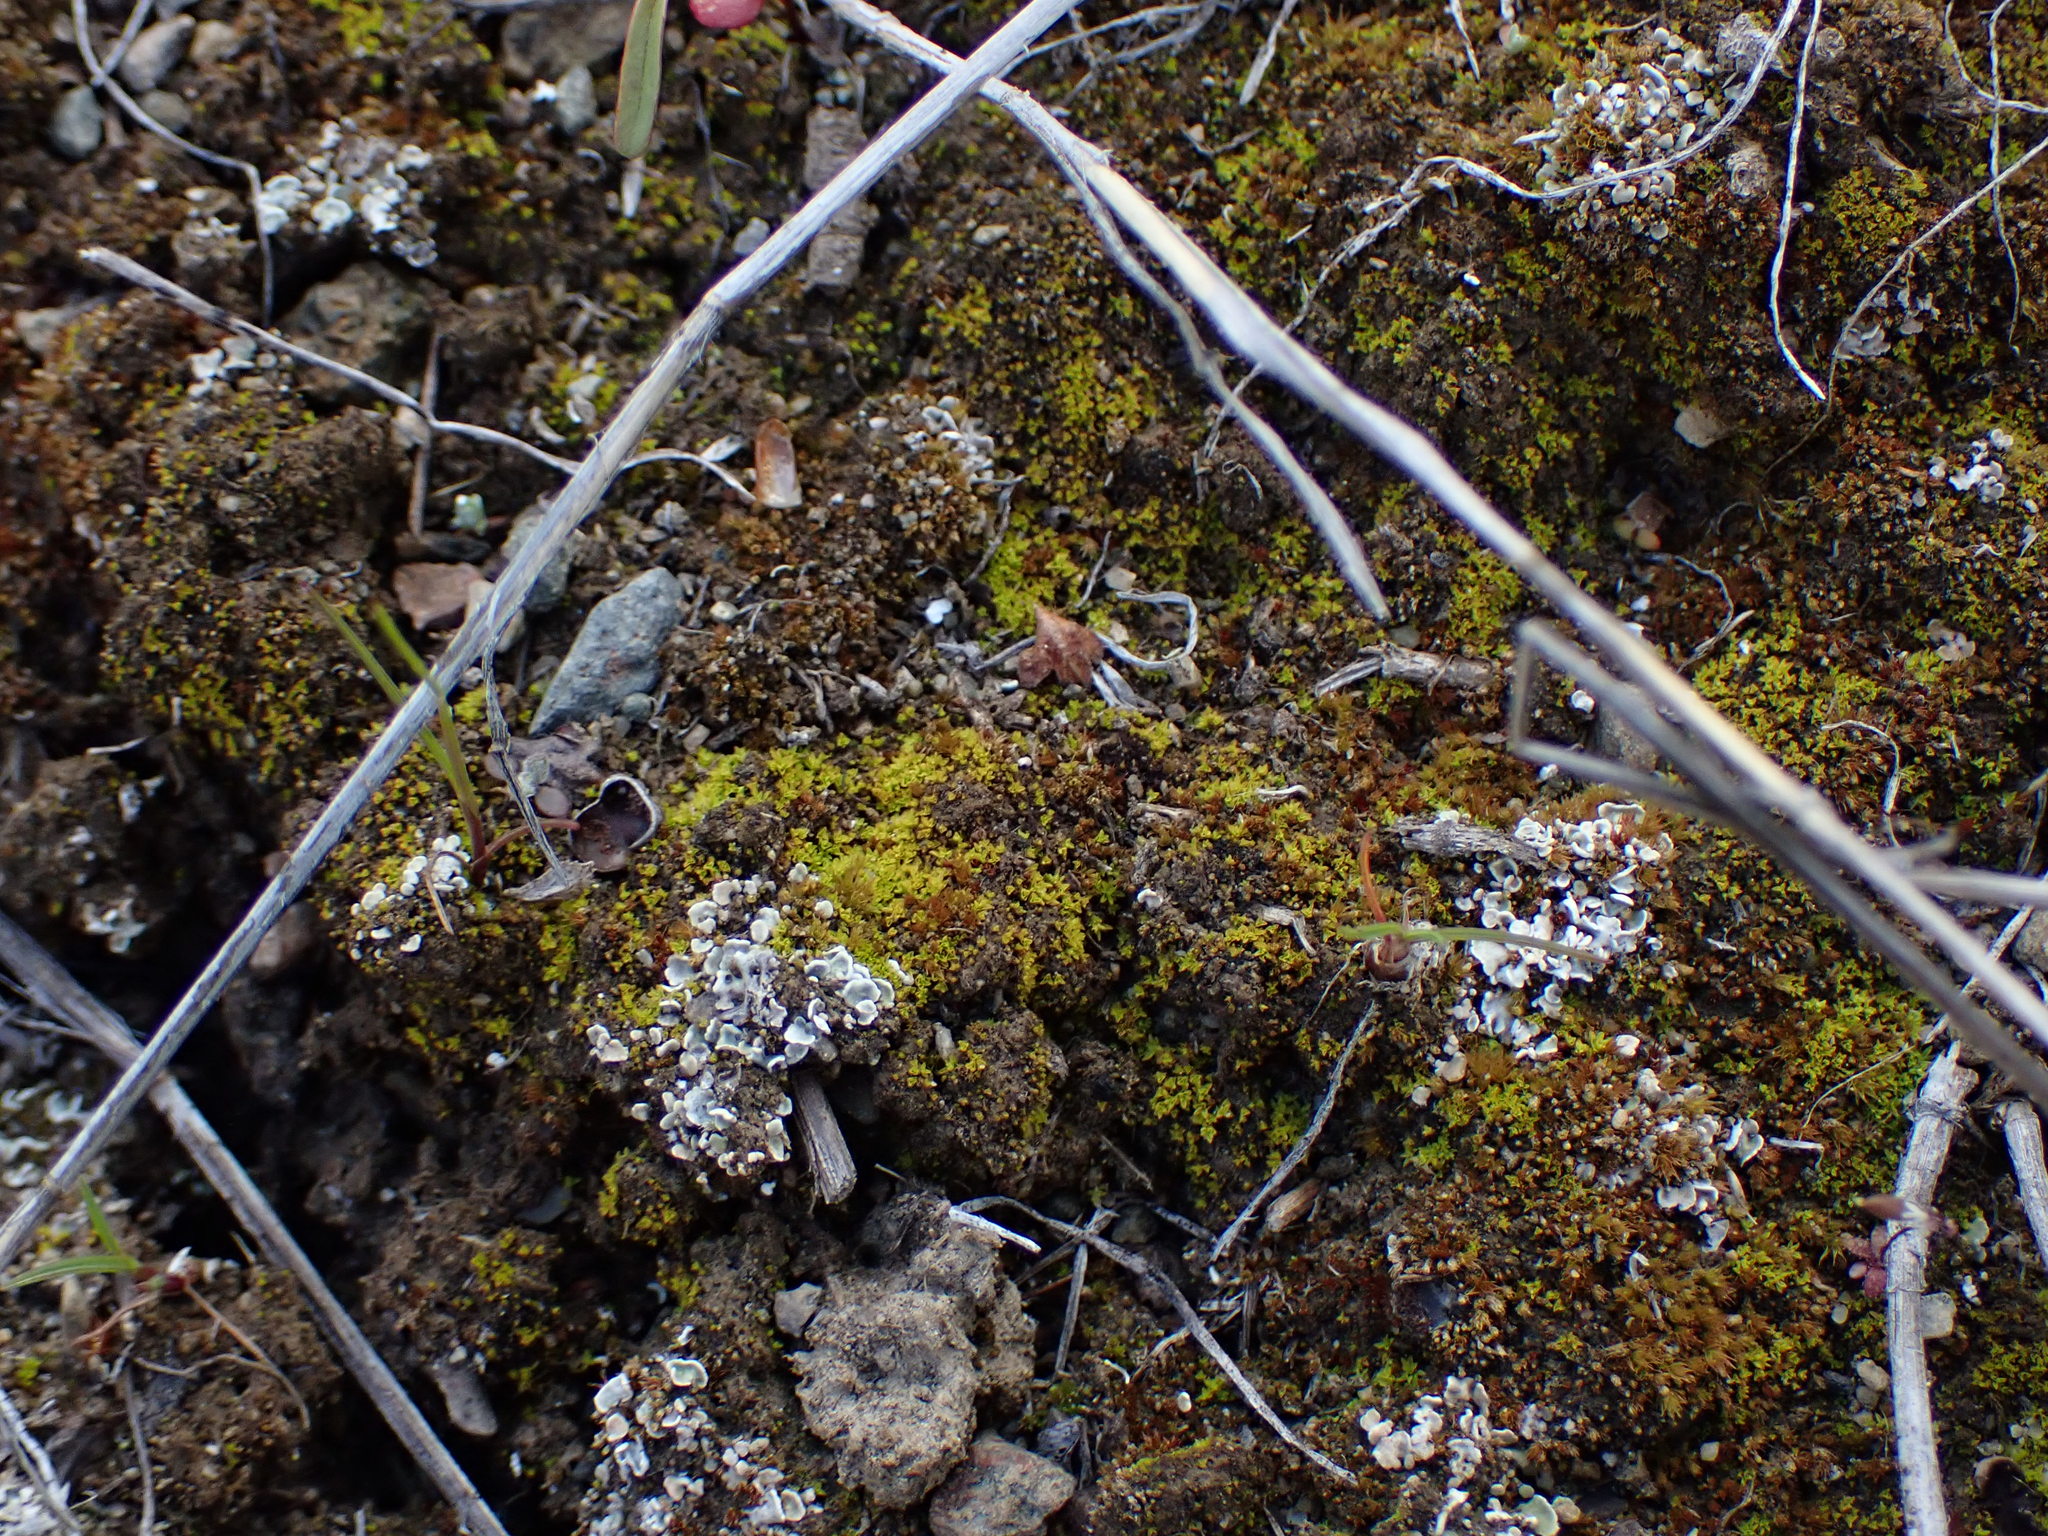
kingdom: Plantae
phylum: Bryophyta
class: Bryopsida
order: Pottiales
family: Pottiaceae
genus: Tortula
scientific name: Tortula obtusifolia
